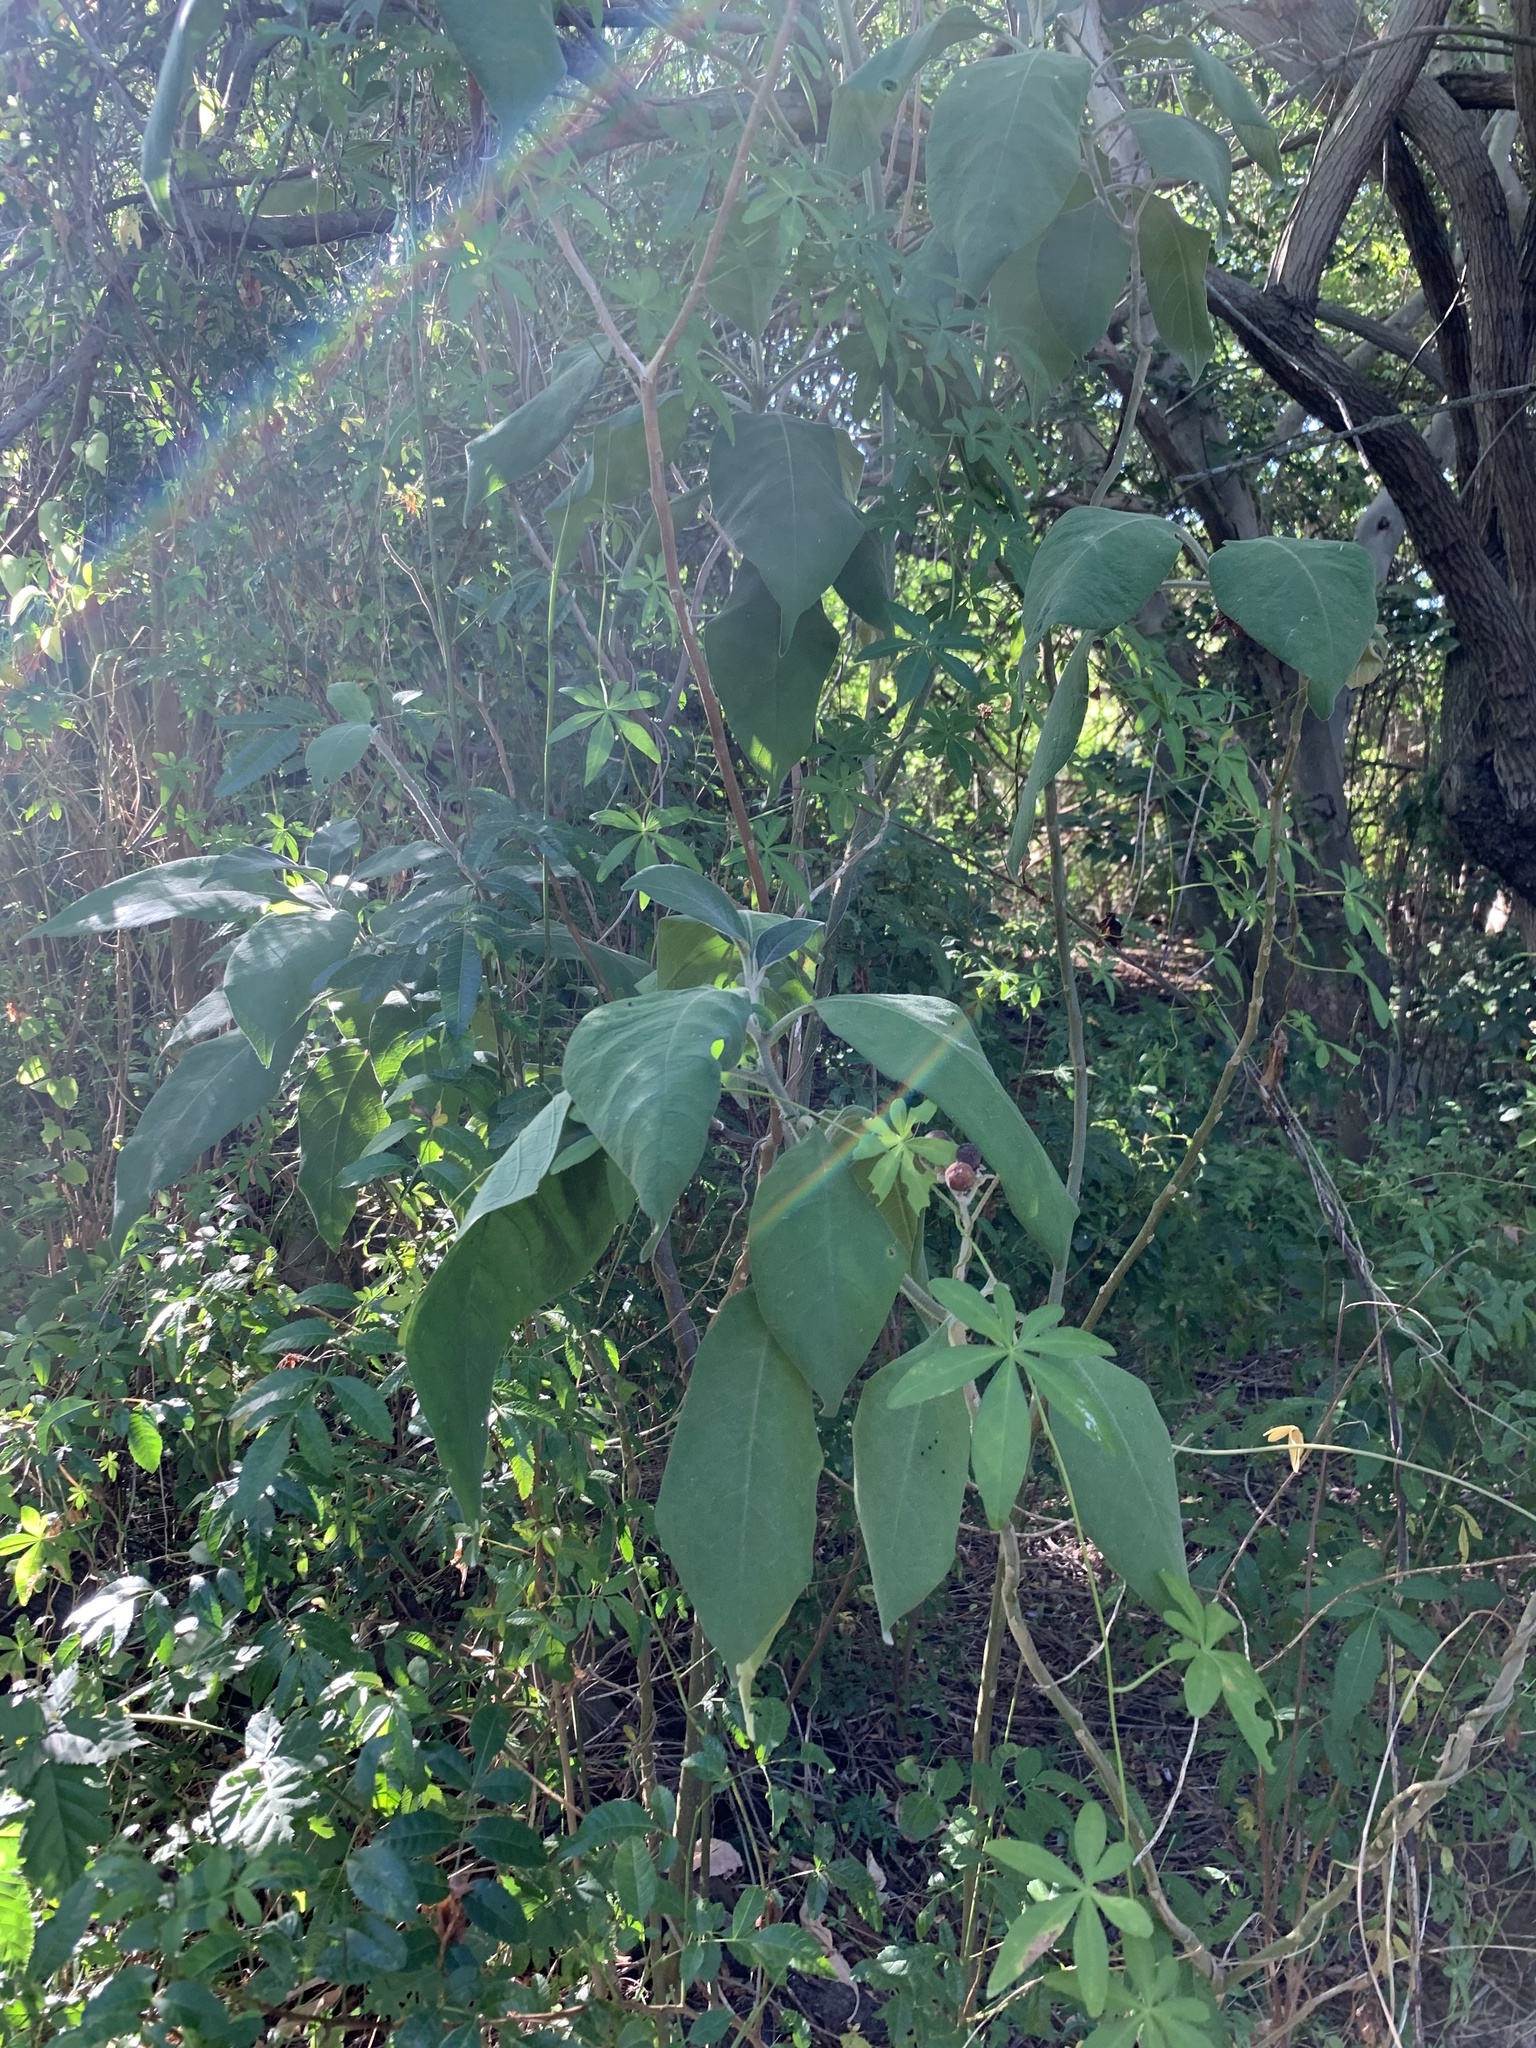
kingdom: Plantae
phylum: Tracheophyta
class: Magnoliopsida
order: Solanales
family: Solanaceae
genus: Solanum
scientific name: Solanum mauritianum
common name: Earleaf nightshade
